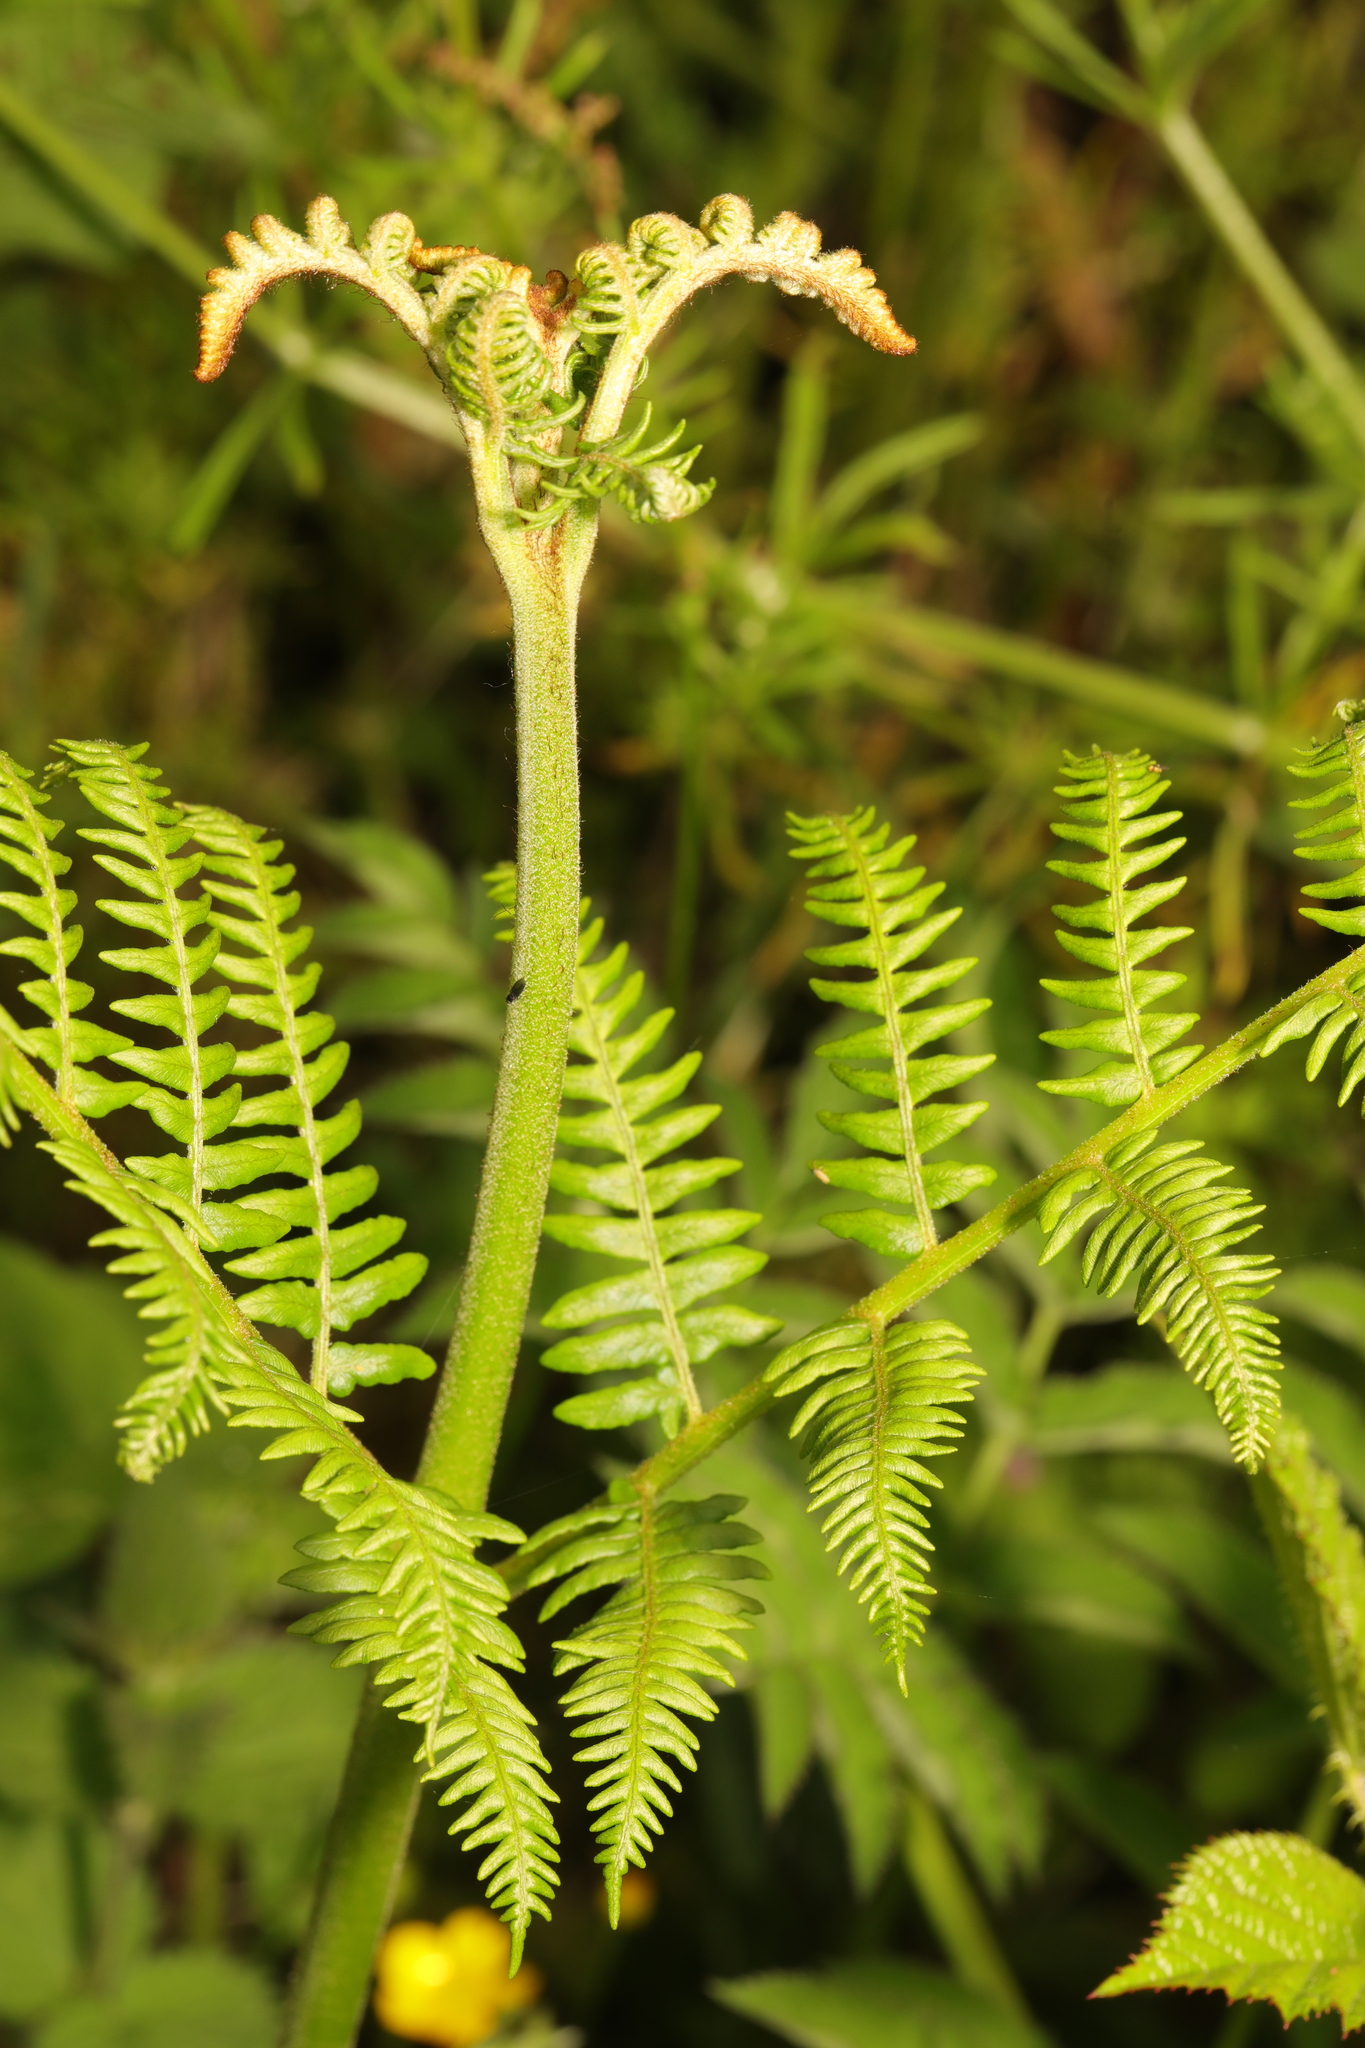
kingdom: Plantae
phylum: Tracheophyta
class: Polypodiopsida
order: Polypodiales
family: Dennstaedtiaceae
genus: Pteridium
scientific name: Pteridium aquilinum
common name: Bracken
